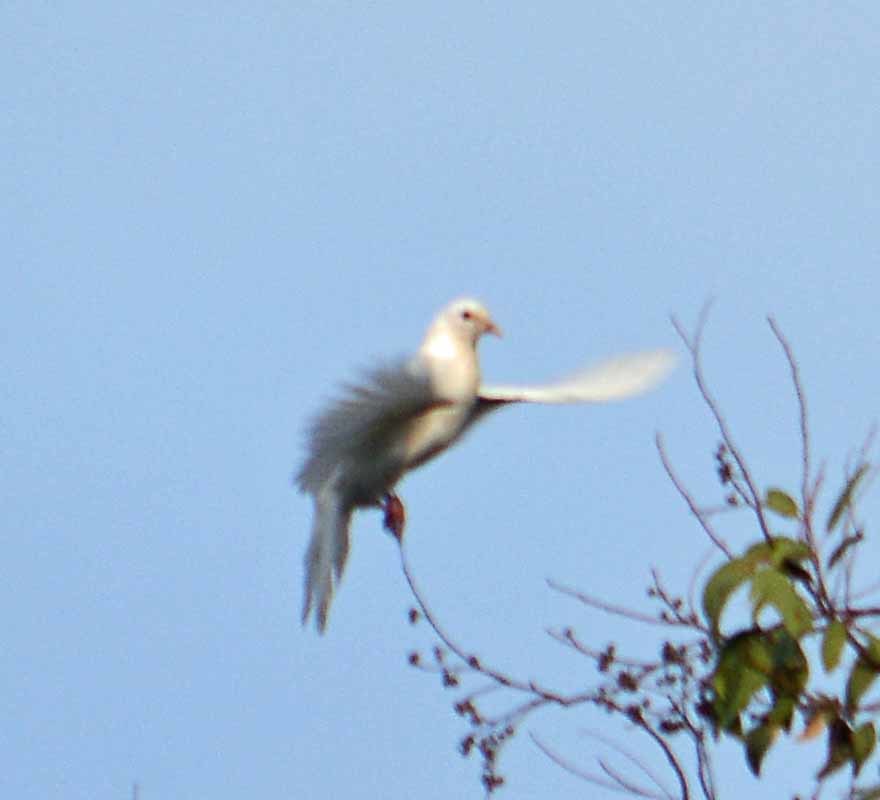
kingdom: Animalia
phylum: Chordata
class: Aves
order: Columbiformes
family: Columbidae
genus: Columba
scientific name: Columba livia
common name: Rock pigeon
